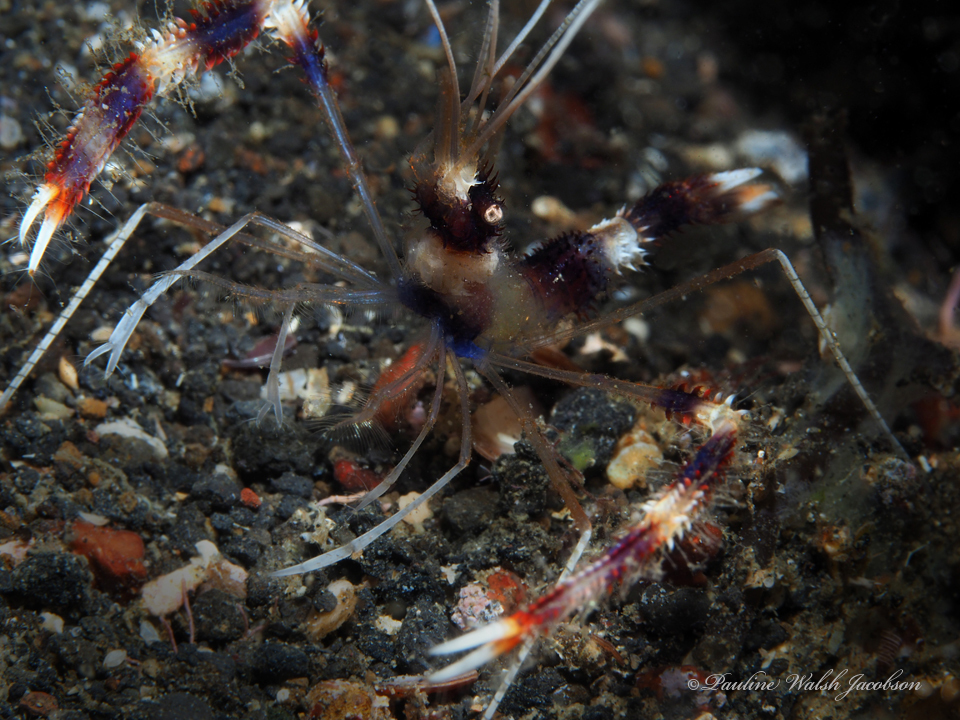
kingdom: Animalia
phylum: Arthropoda
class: Malacostraca
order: Decapoda
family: Stenopodidae
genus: Stenopus
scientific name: Stenopus hispidus
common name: Banded coral shrimp
